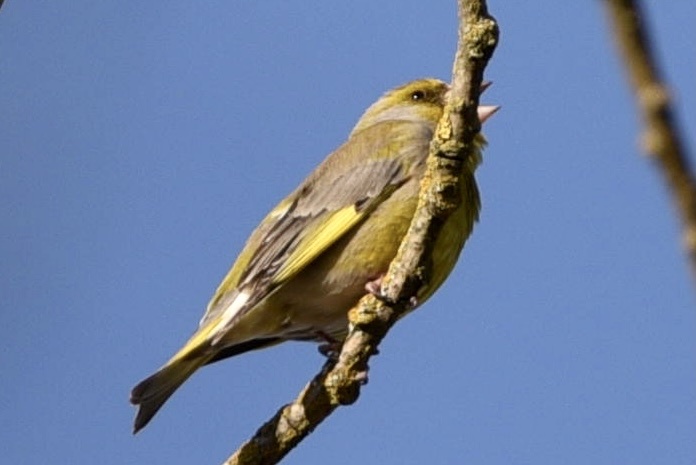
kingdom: Plantae
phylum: Tracheophyta
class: Liliopsida
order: Poales
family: Poaceae
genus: Chloris
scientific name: Chloris chloris
